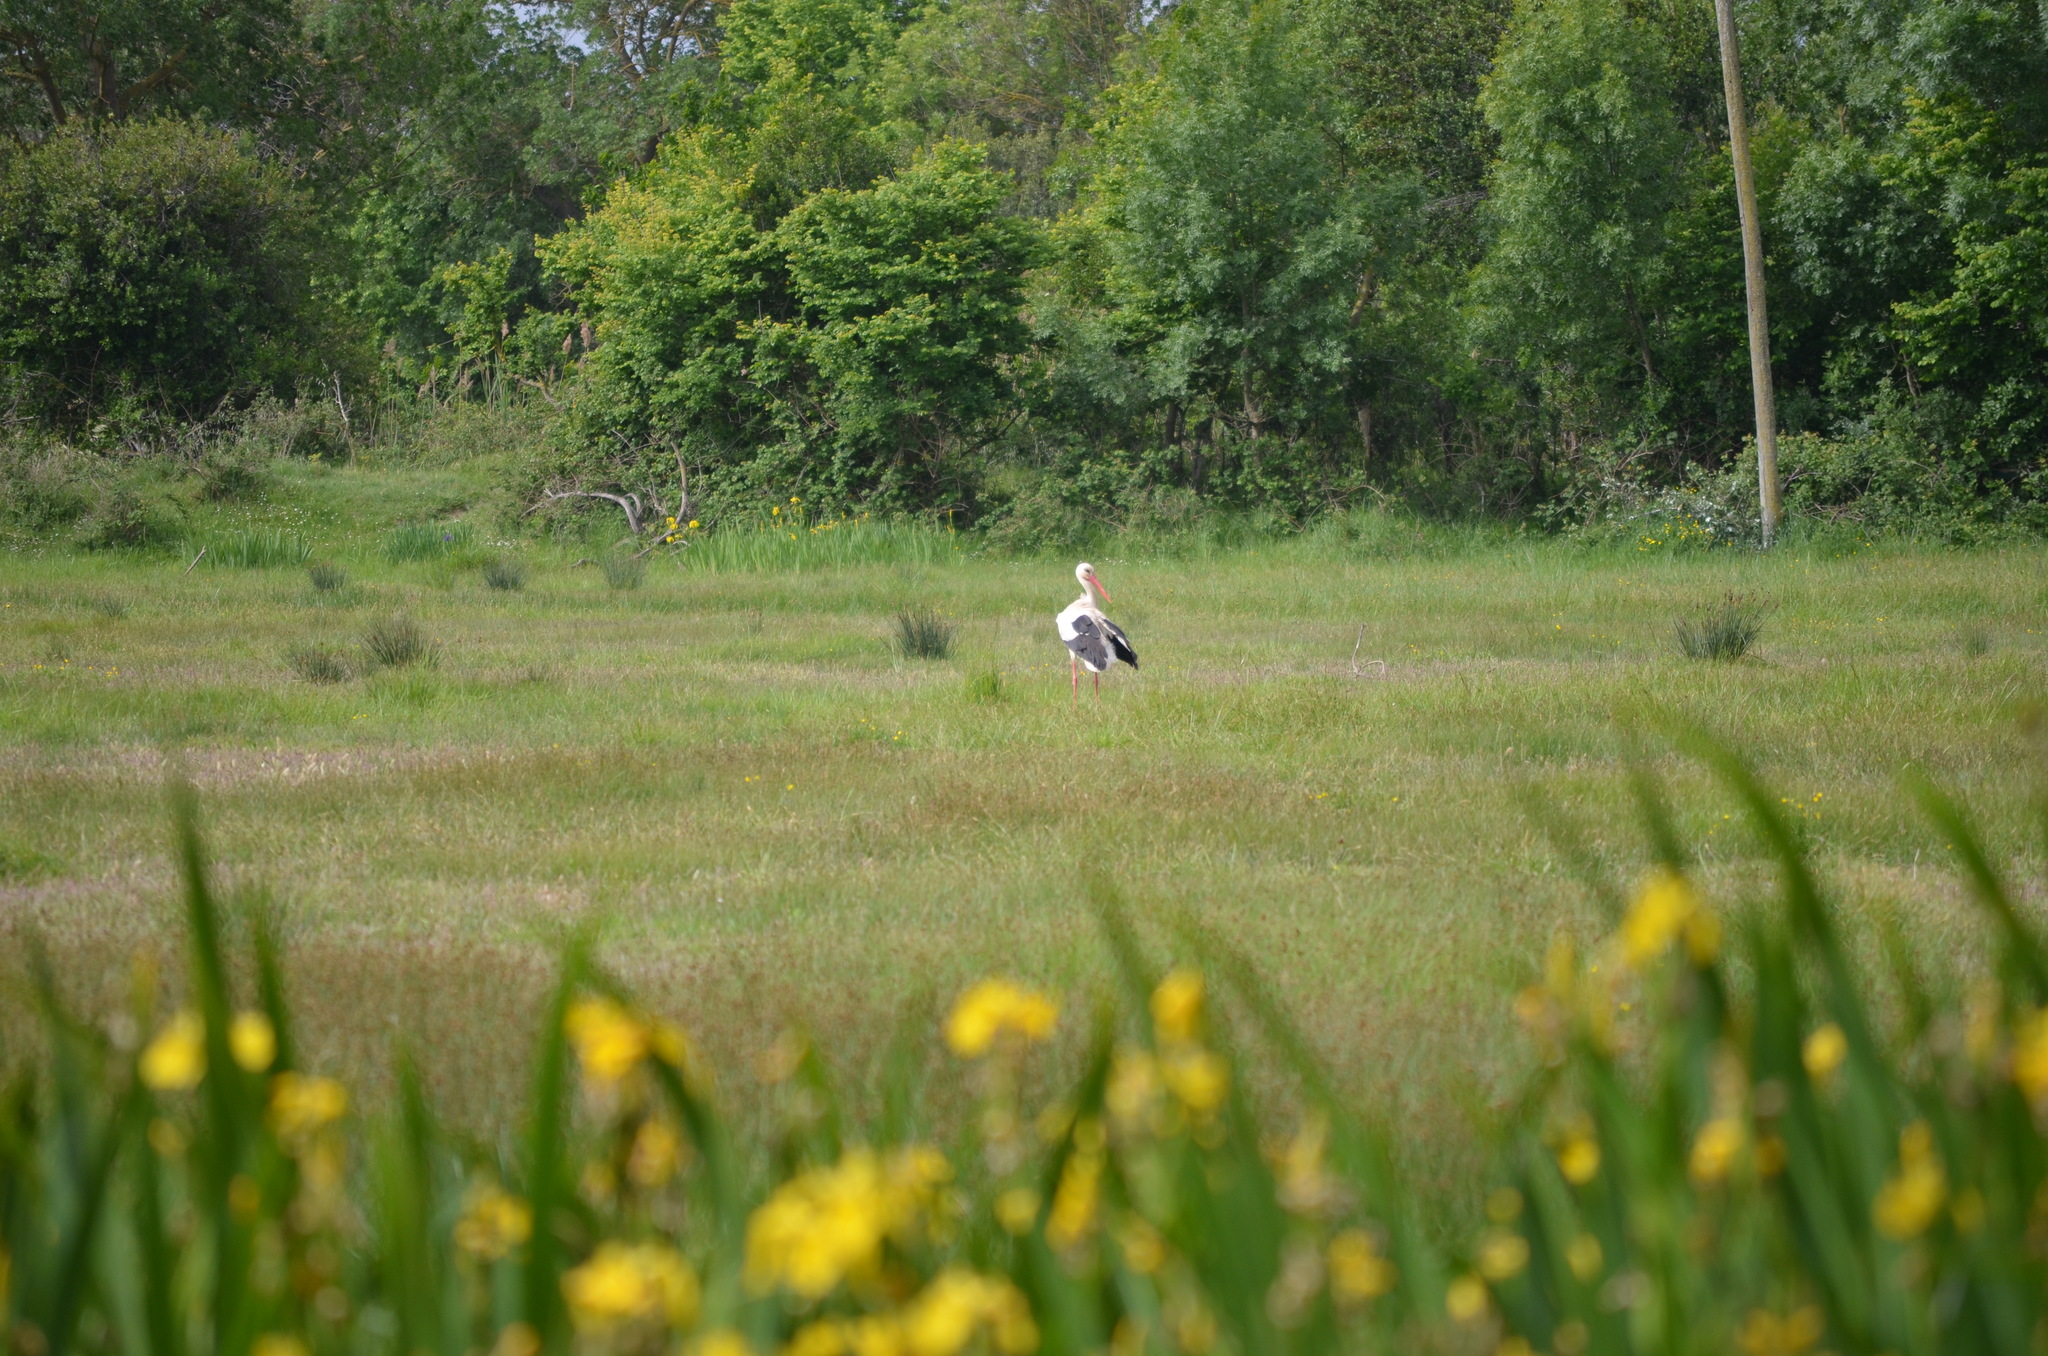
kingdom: Animalia
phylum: Chordata
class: Aves
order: Ciconiiformes
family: Ciconiidae
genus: Ciconia
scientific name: Ciconia ciconia
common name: White stork
